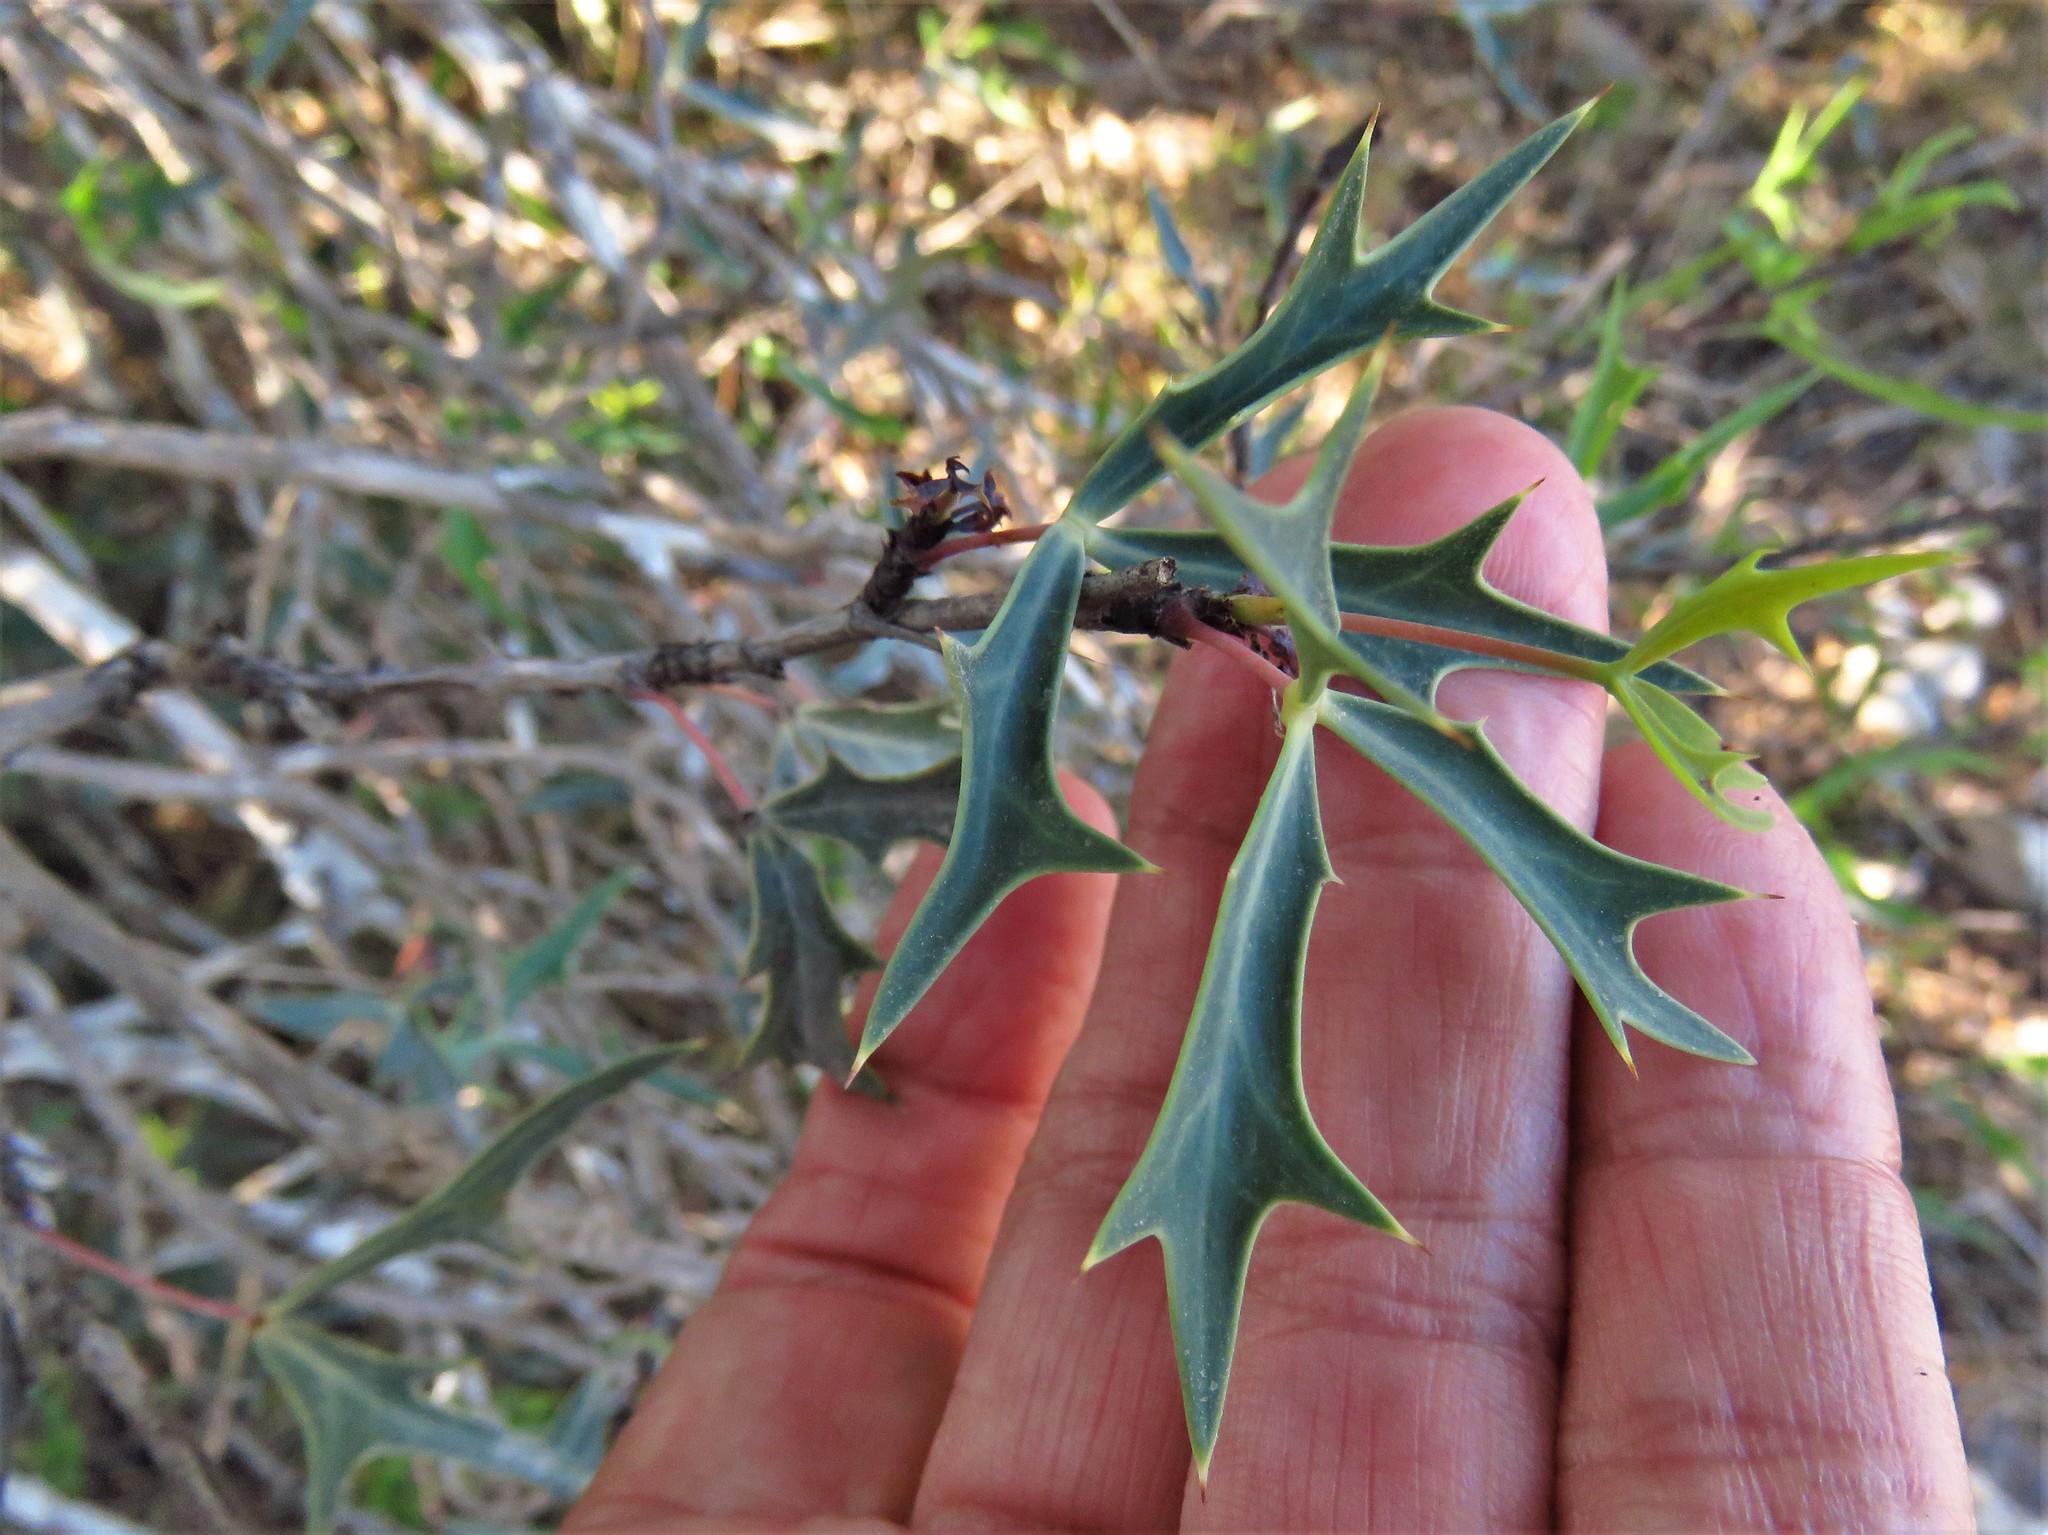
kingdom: Plantae
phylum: Tracheophyta
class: Magnoliopsida
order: Ranunculales
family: Berberidaceae
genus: Alloberberis
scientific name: Alloberberis trifoliolata
